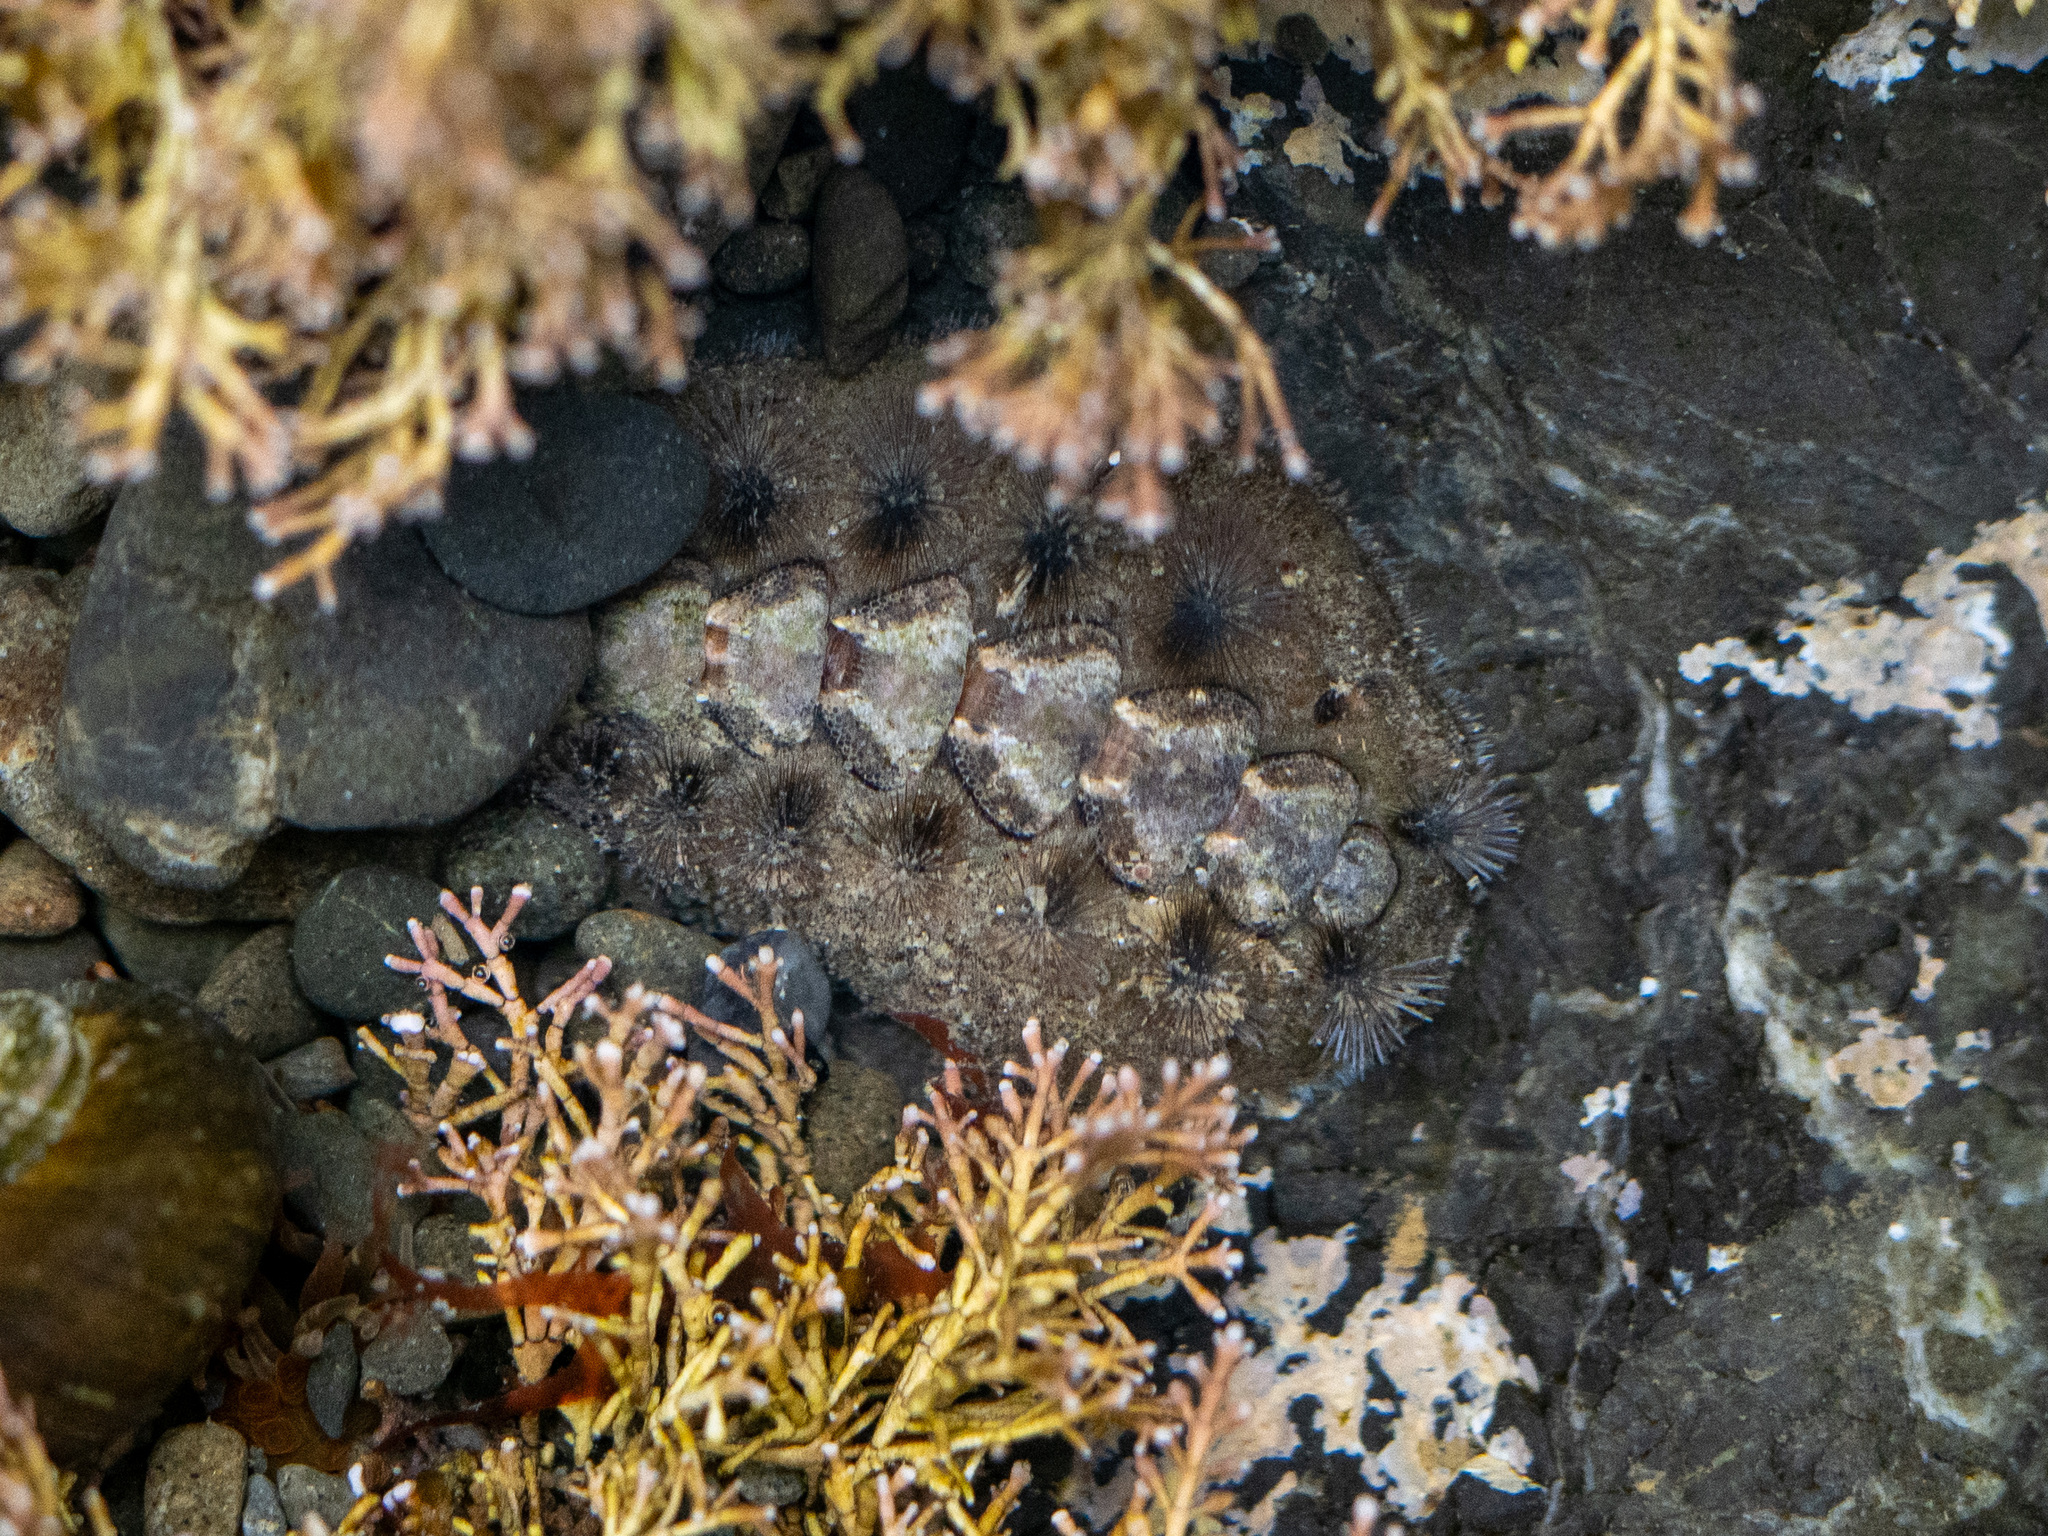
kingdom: Animalia
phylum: Mollusca
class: Polyplacophora
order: Chitonida
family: Acanthochitonidae
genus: Acanthochitona
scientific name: Acanthochitona zelandica
